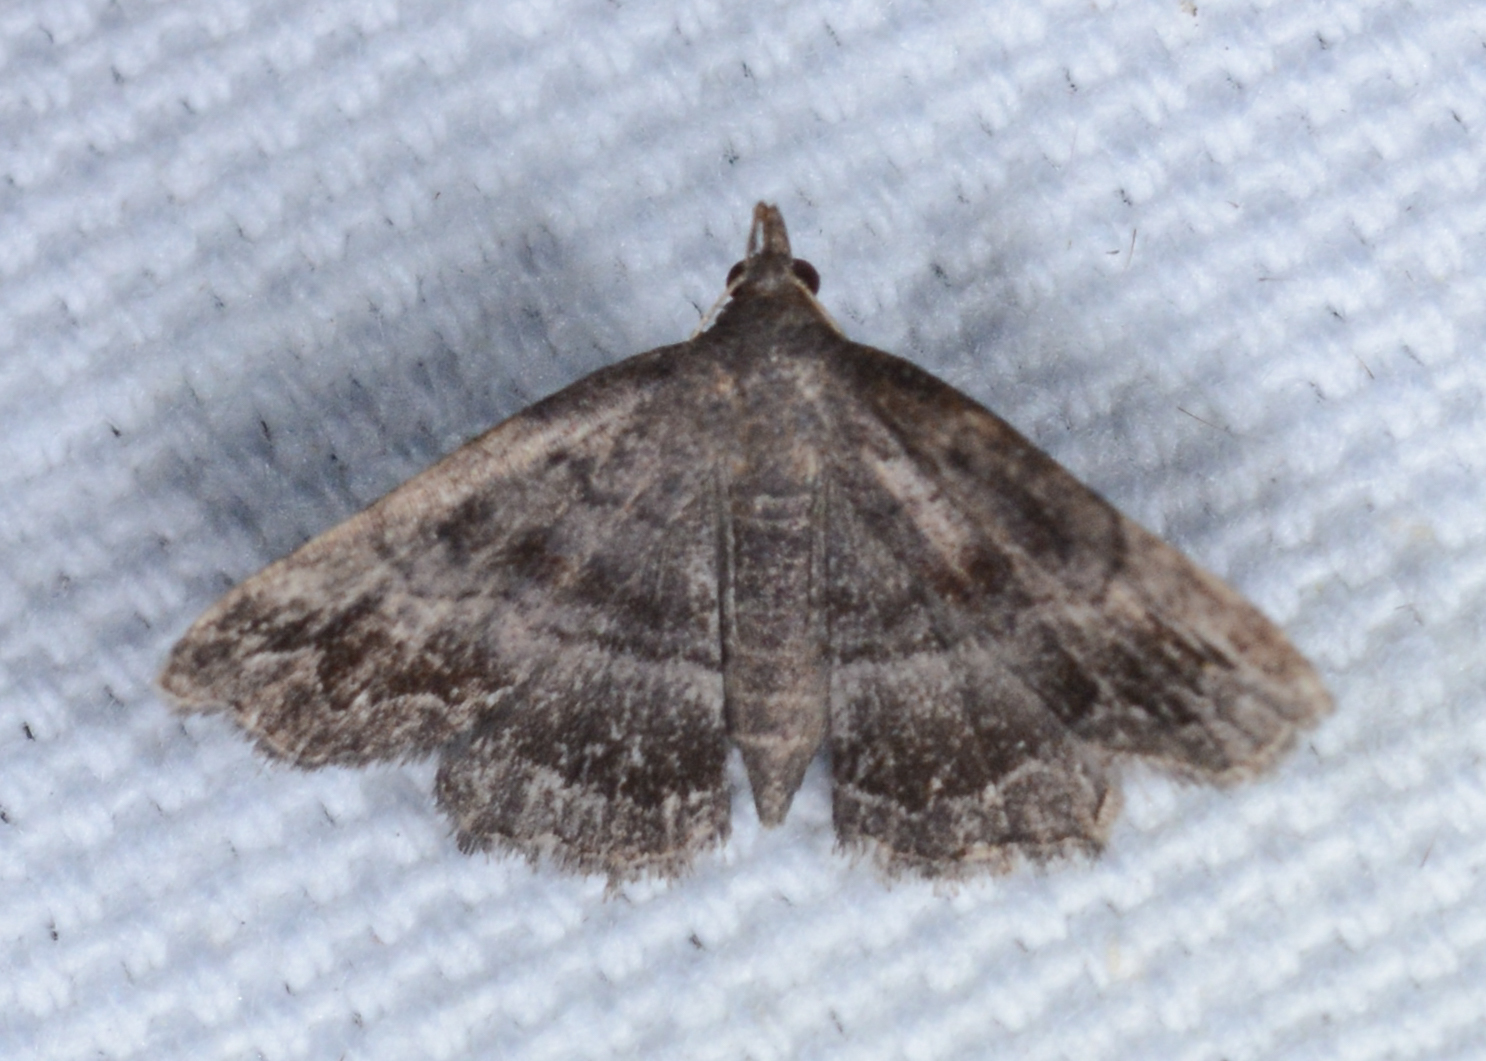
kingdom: Animalia
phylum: Arthropoda
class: Insecta
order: Lepidoptera
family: Erebidae
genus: Phalaenostola
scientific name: Phalaenostola larentioides
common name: Black-banded owlet
